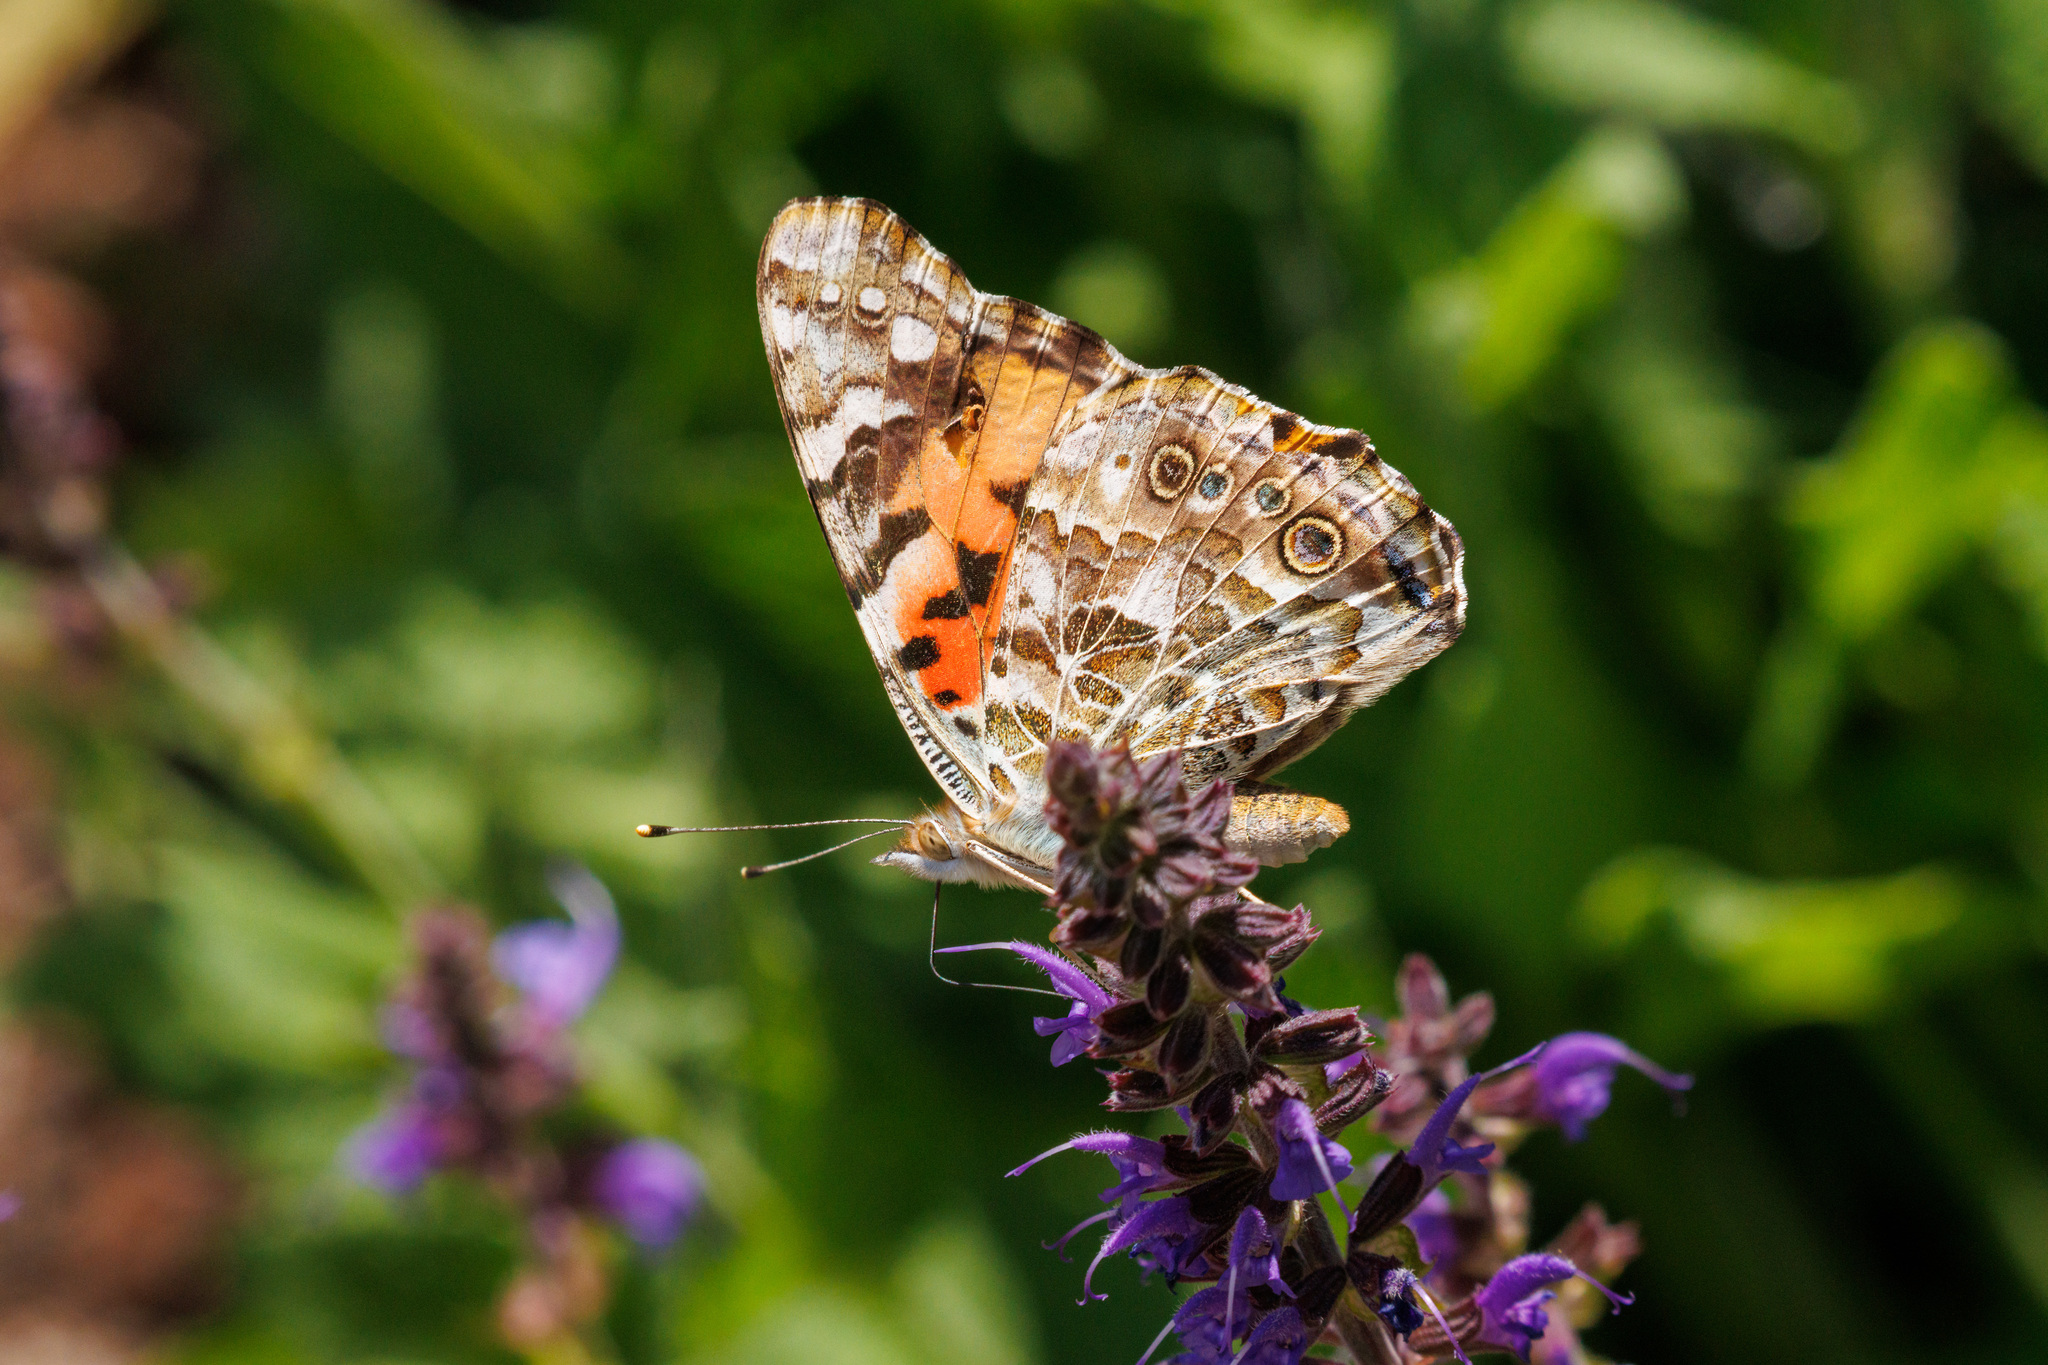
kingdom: Animalia
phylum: Arthropoda
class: Insecta
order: Lepidoptera
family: Nymphalidae
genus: Vanessa
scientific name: Vanessa cardui
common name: Painted lady
